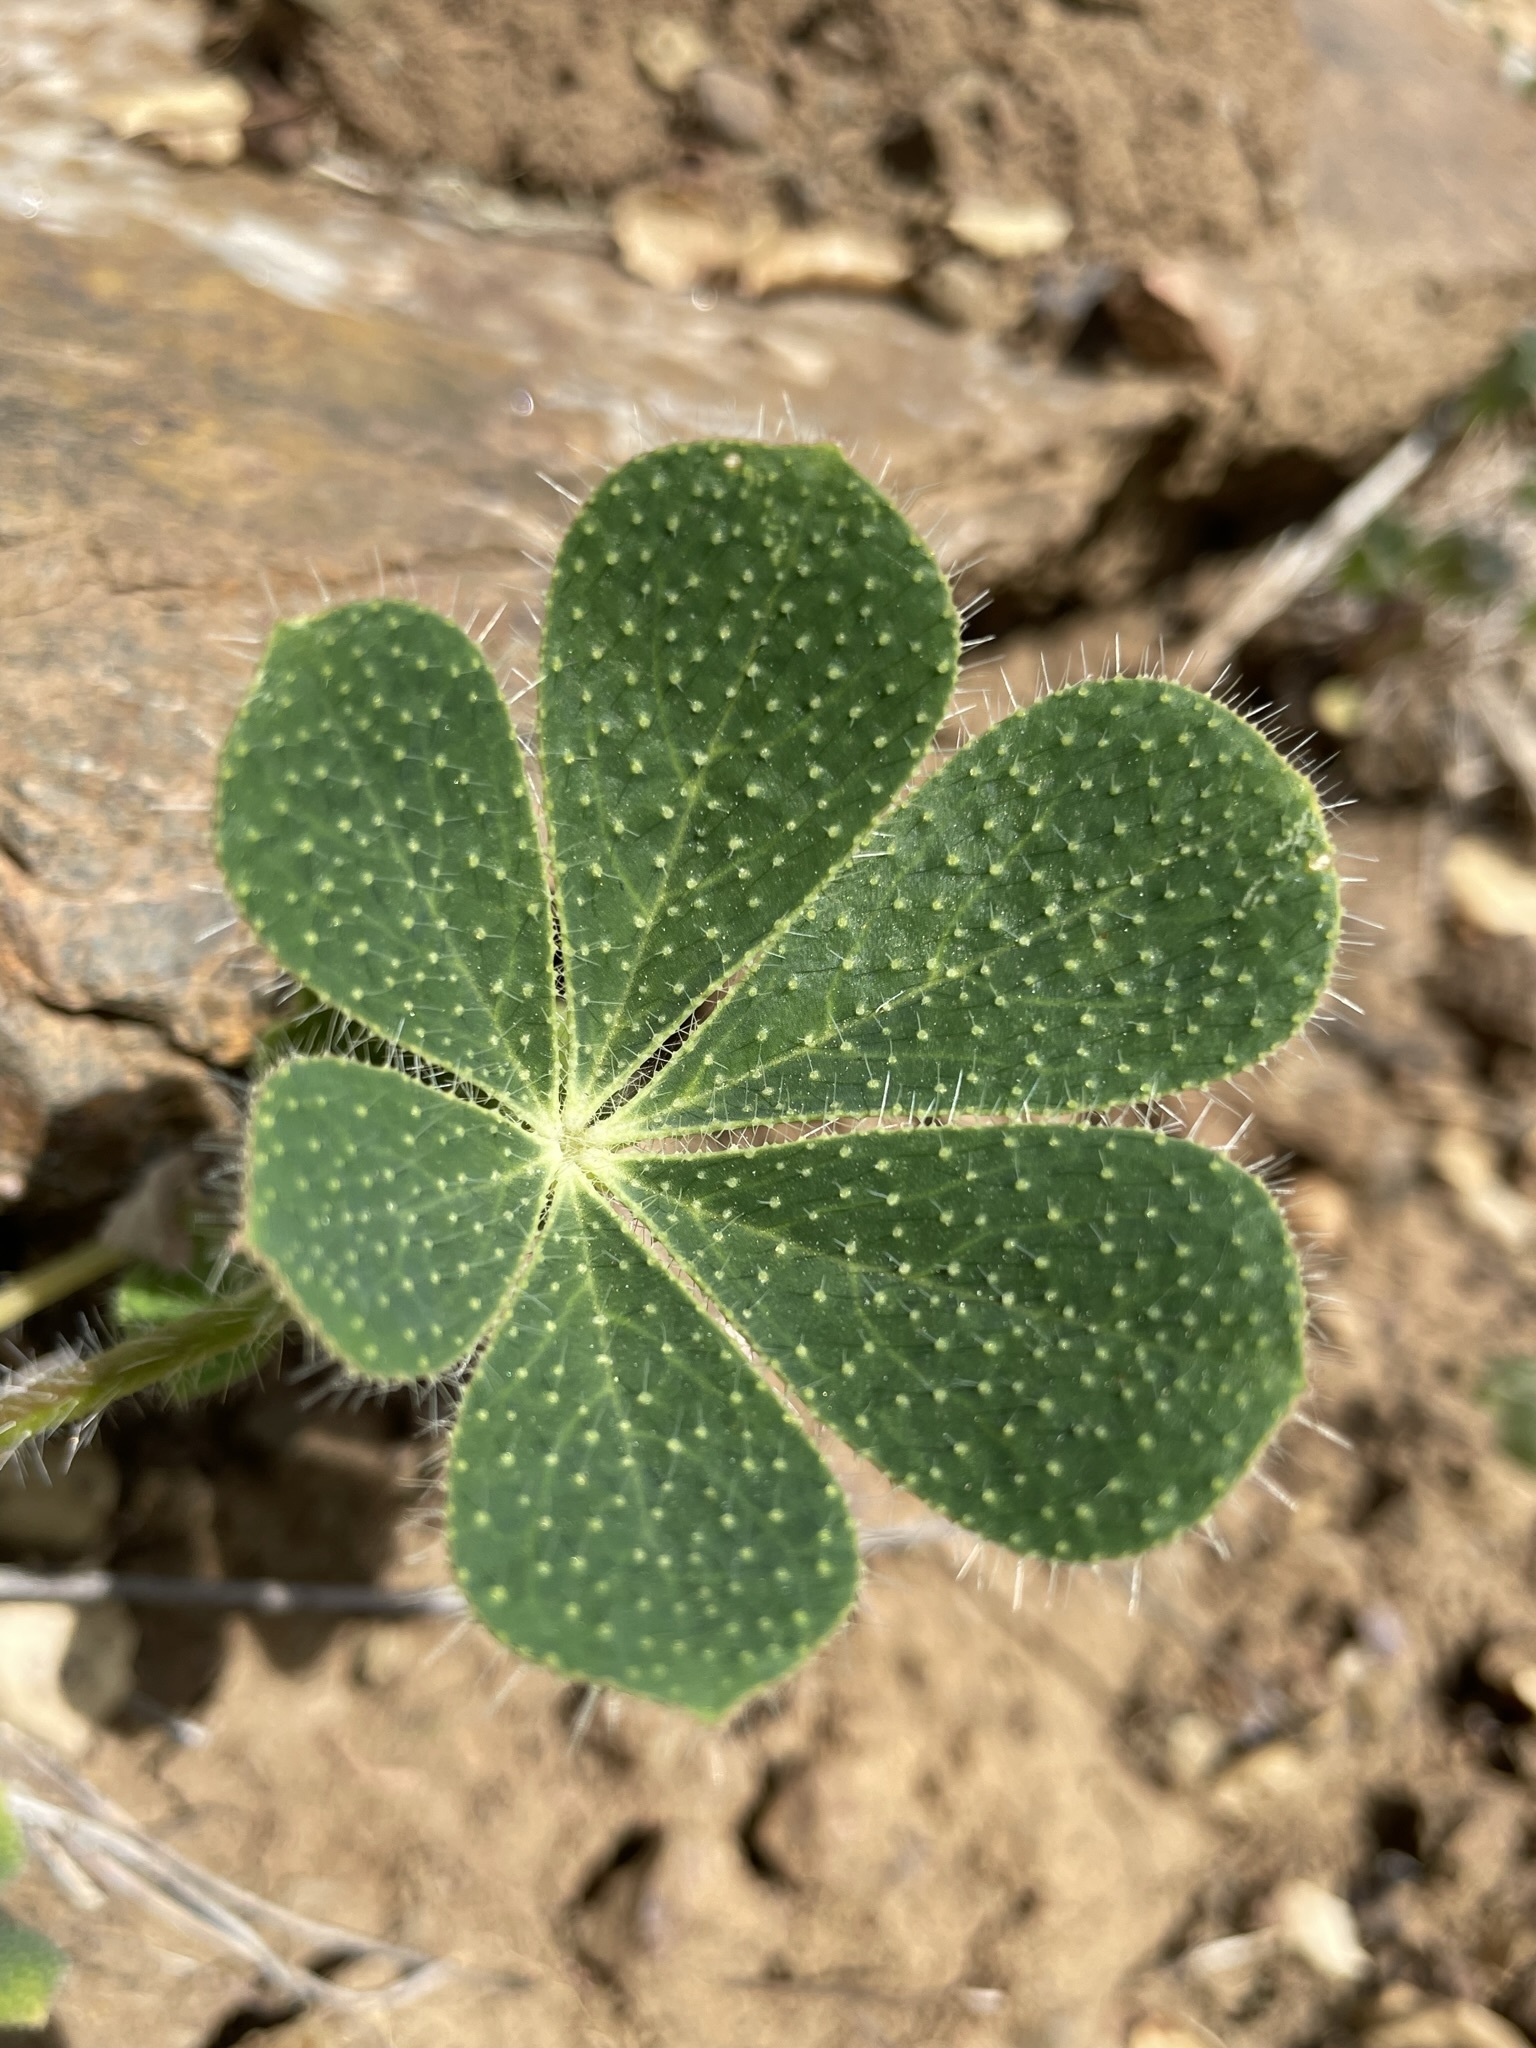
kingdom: Plantae
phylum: Tracheophyta
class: Magnoliopsida
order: Fabales
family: Fabaceae
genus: Lupinus
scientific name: Lupinus hirsutissimus
